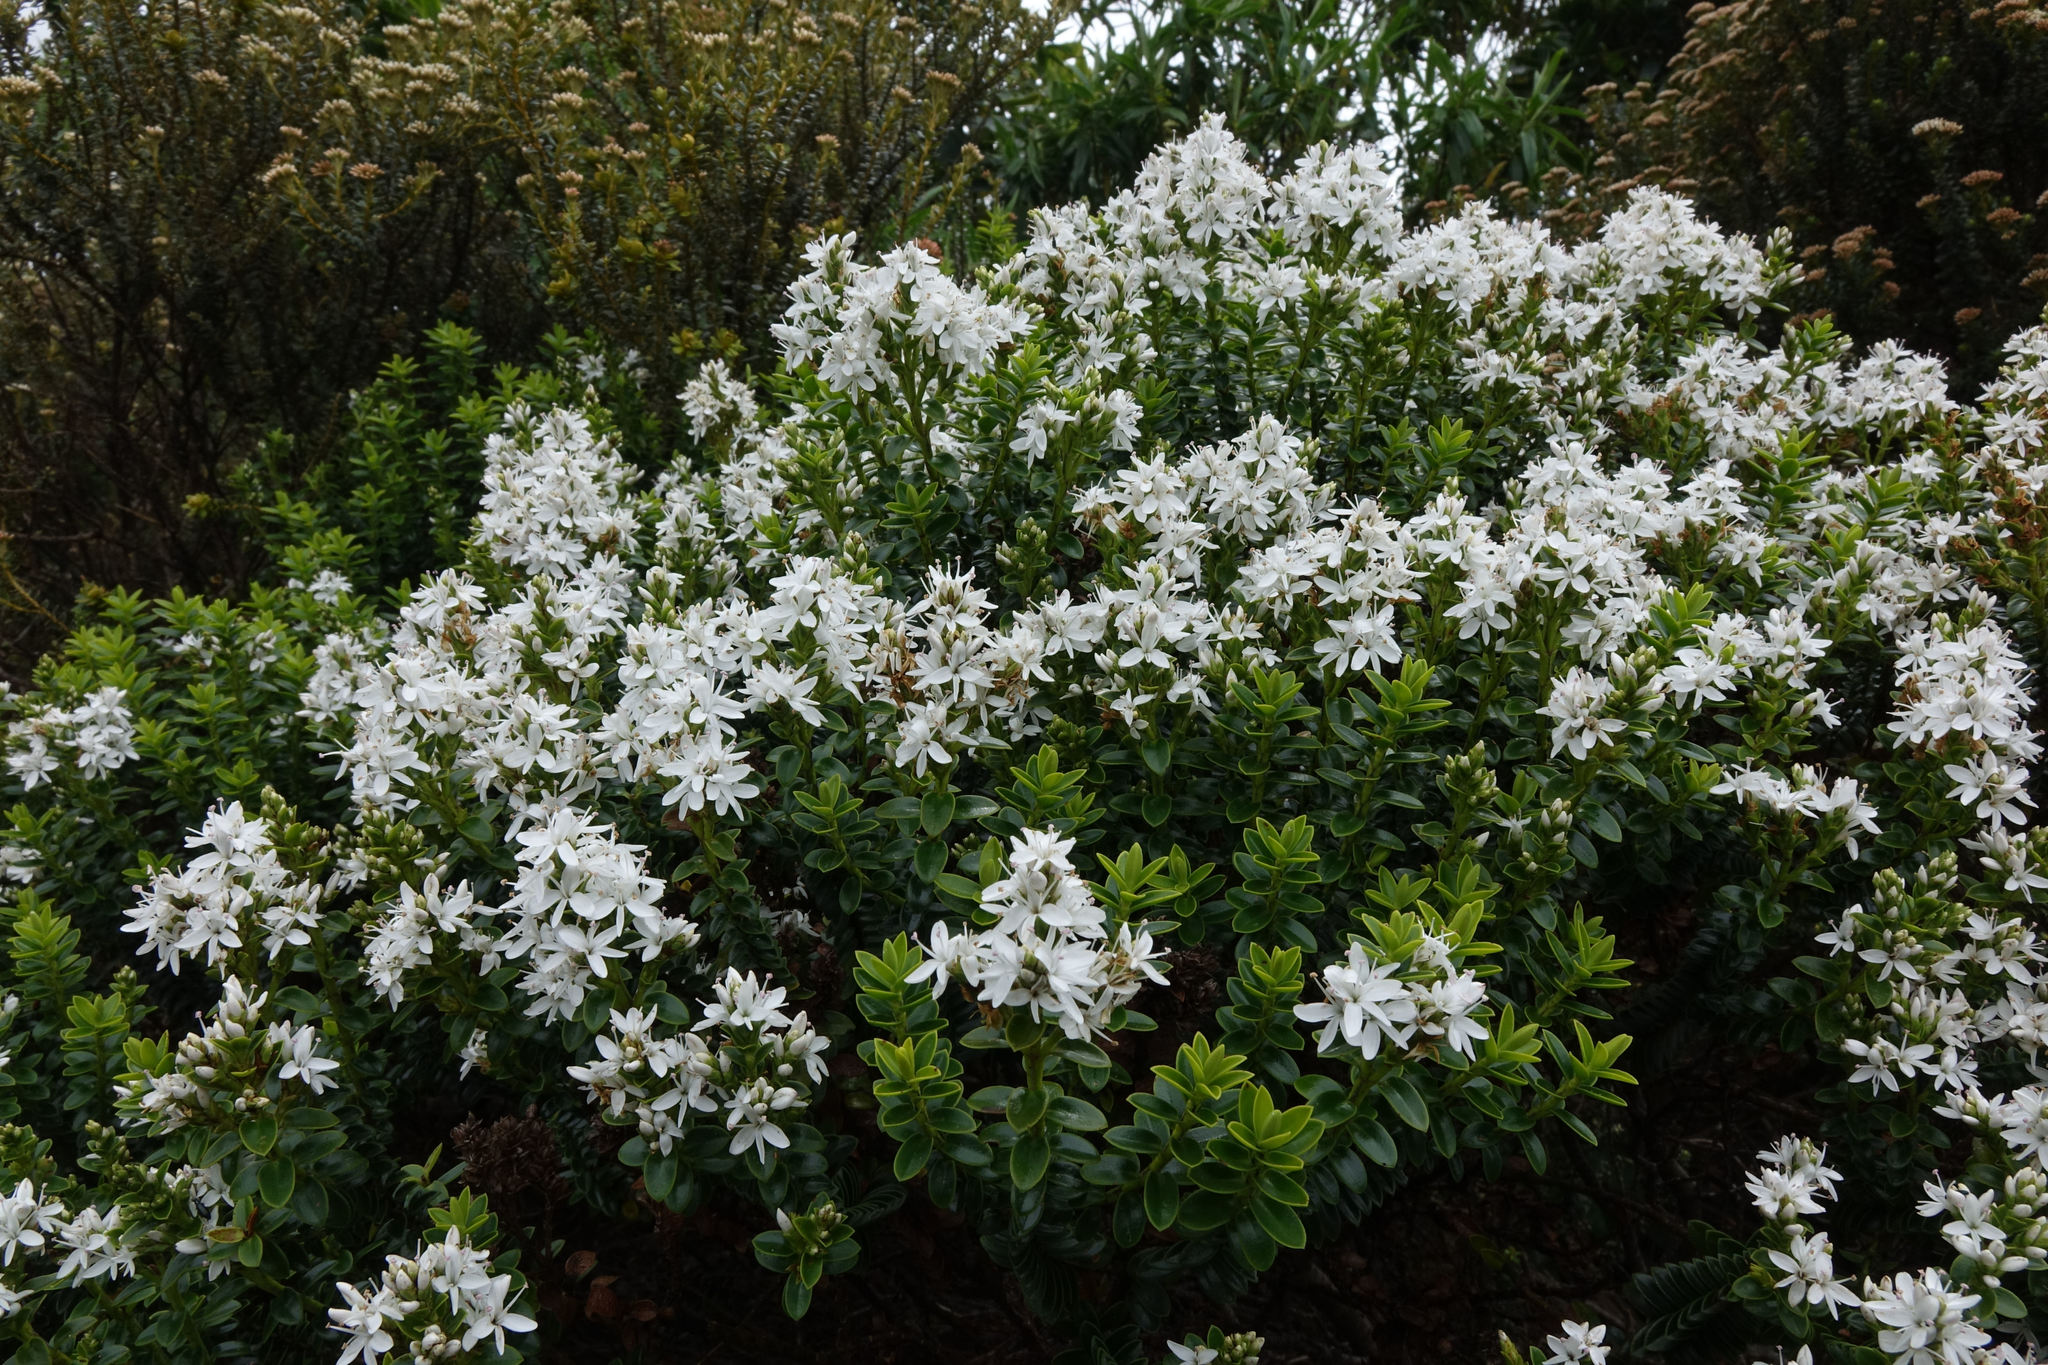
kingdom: Plantae
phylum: Tracheophyta
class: Magnoliopsida
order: Lamiales
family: Plantaginaceae
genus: Veronica
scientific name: Veronica odora
